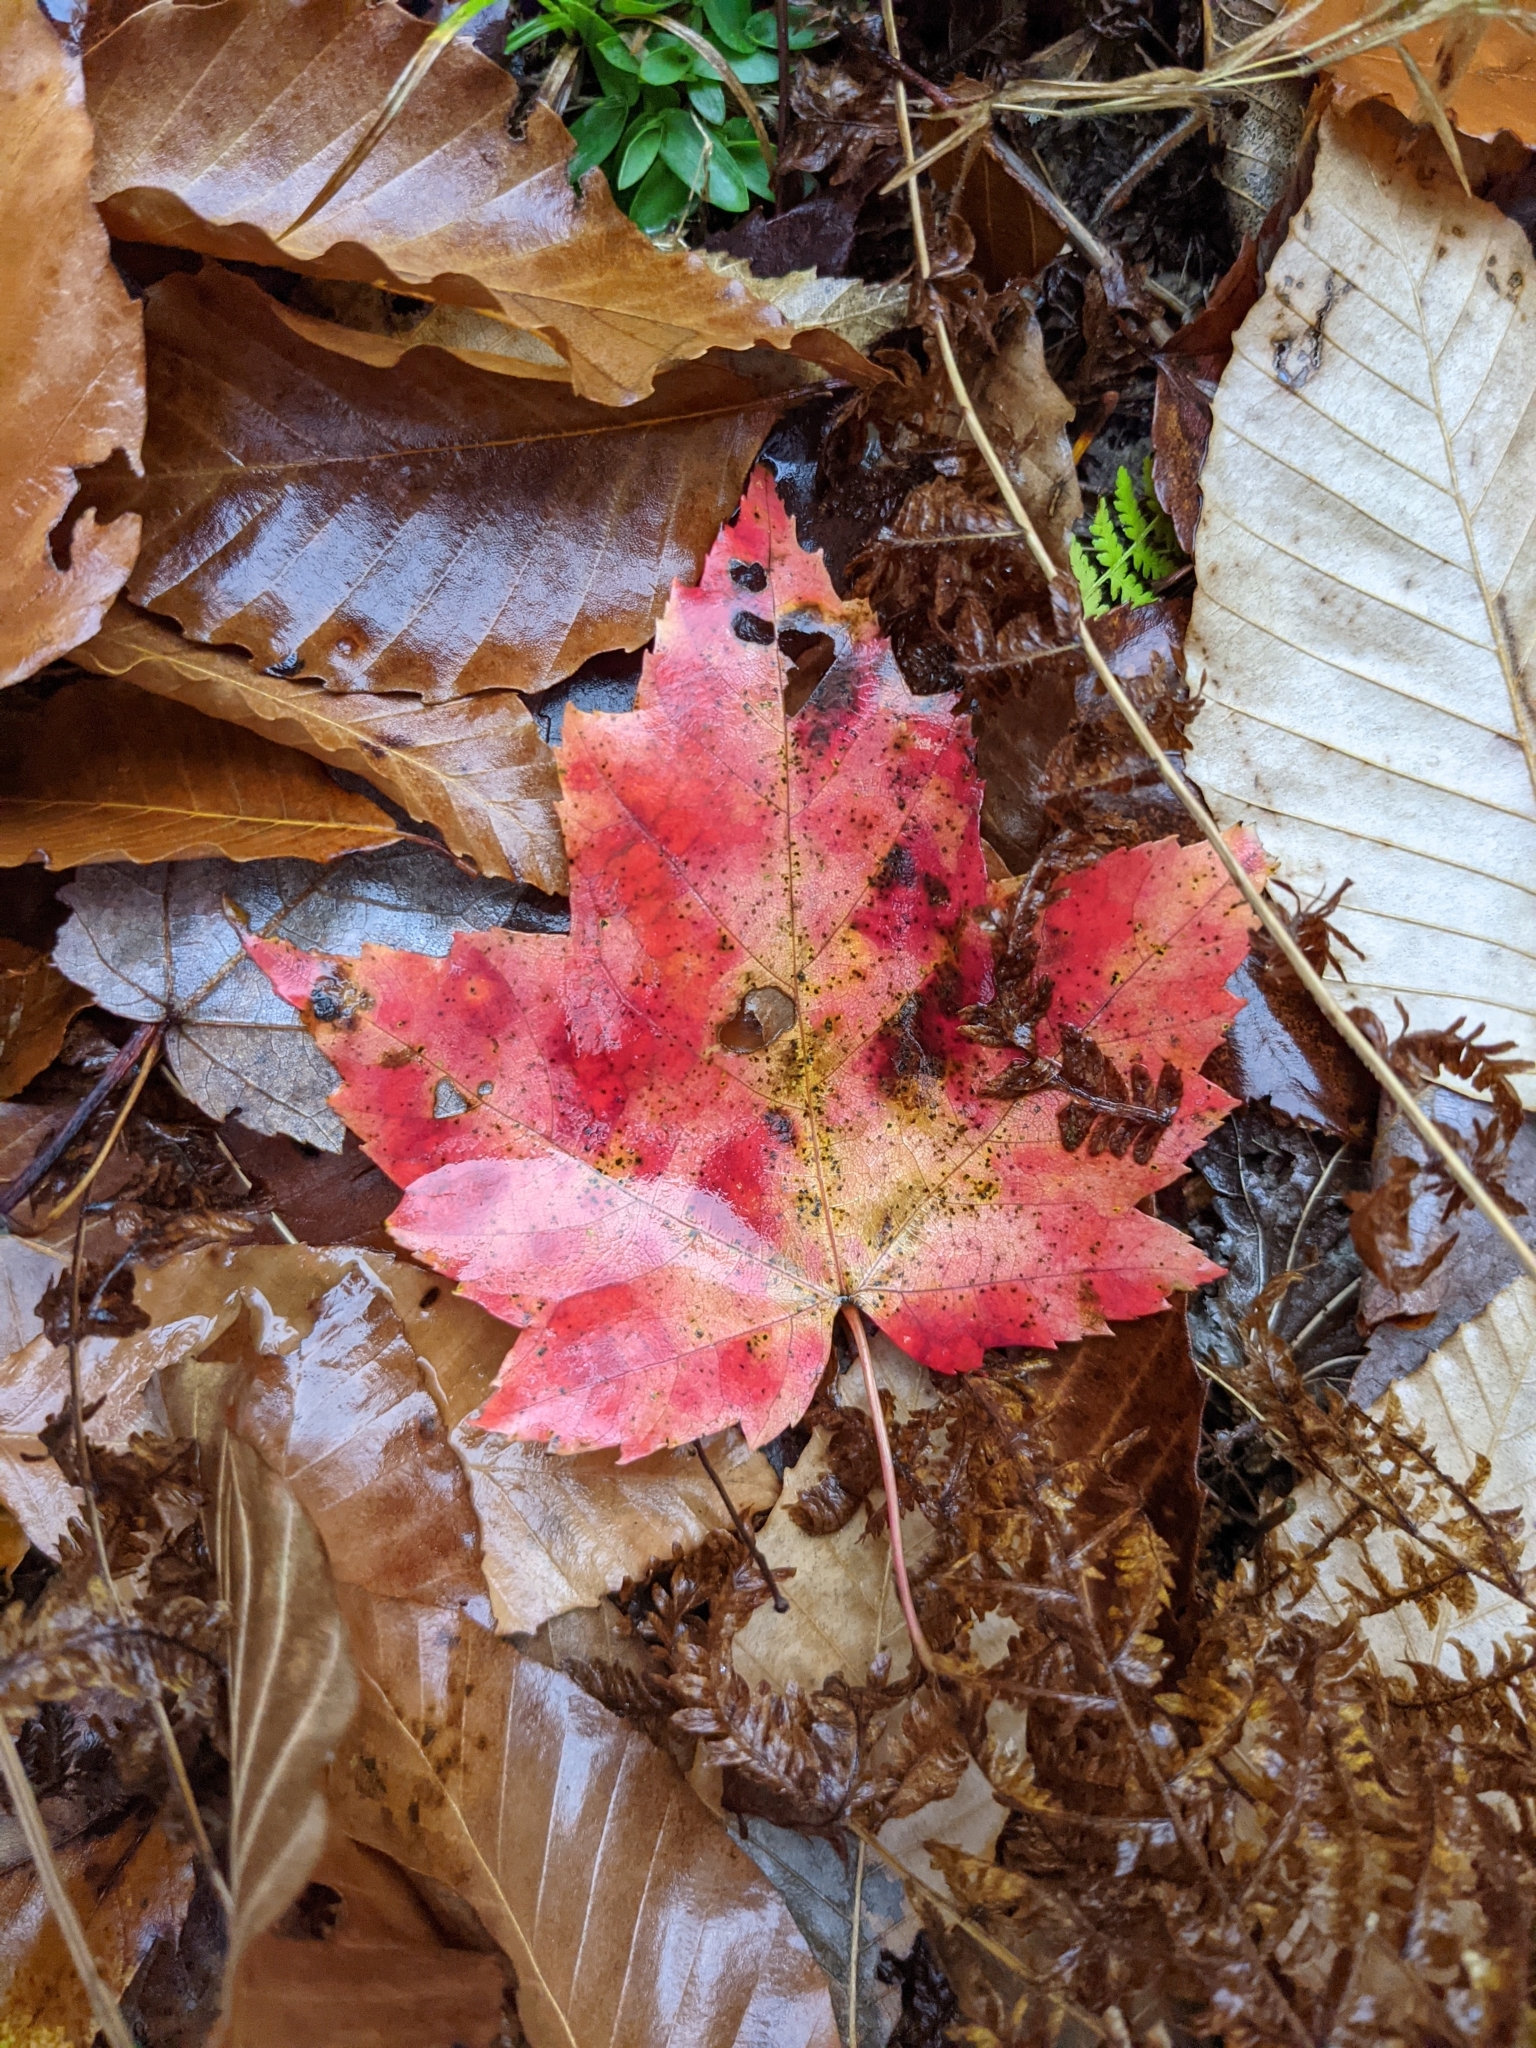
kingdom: Plantae
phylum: Tracheophyta
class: Magnoliopsida
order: Sapindales
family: Sapindaceae
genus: Acer
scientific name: Acer rubrum
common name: Red maple
